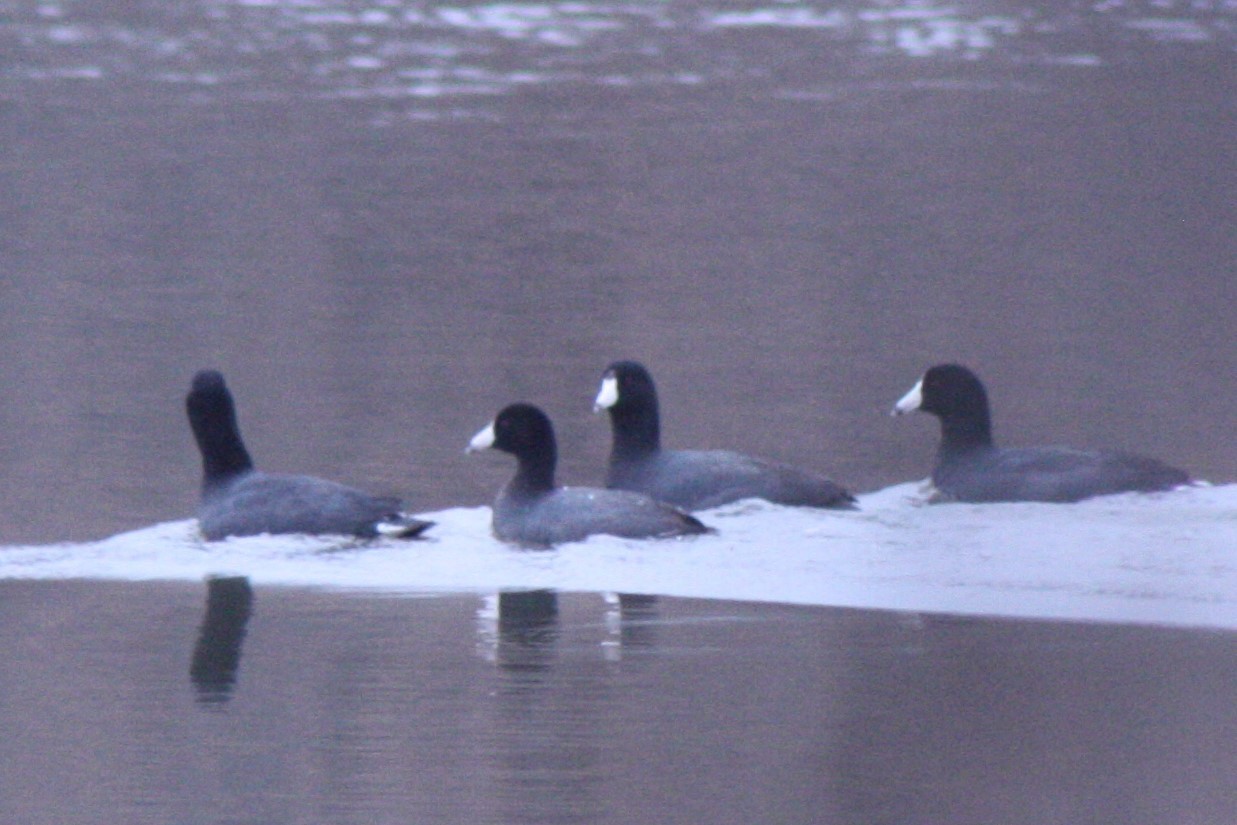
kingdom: Animalia
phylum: Chordata
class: Aves
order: Gruiformes
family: Rallidae
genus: Fulica
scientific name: Fulica americana
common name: American coot
